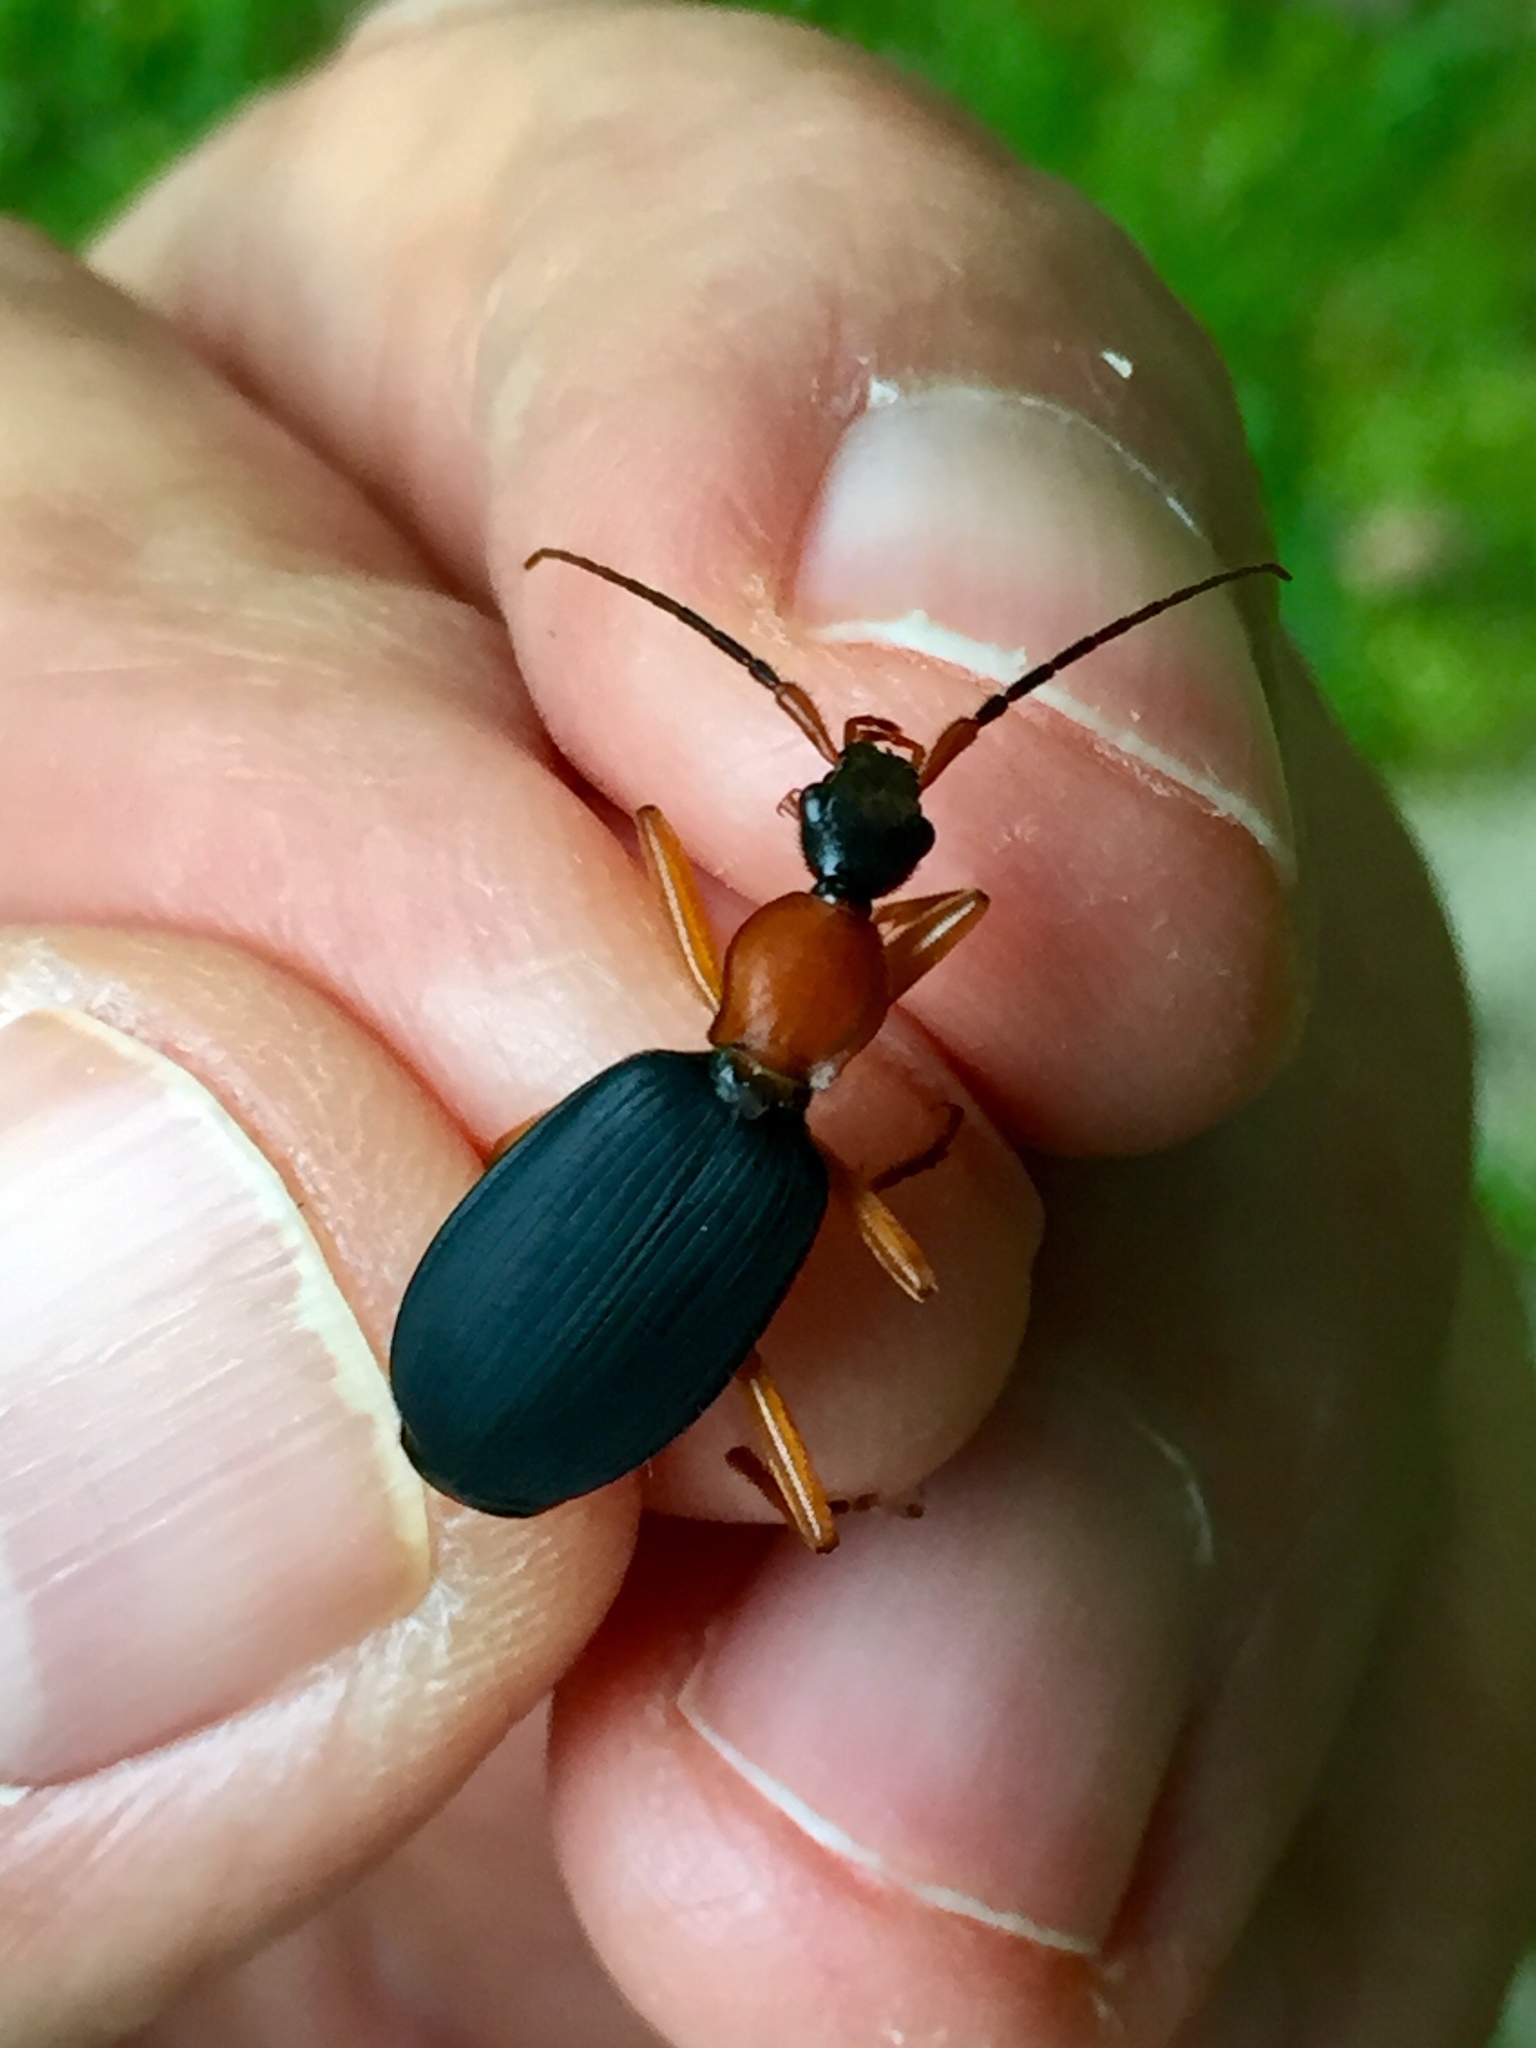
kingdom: Animalia
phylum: Arthropoda
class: Insecta
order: Coleoptera
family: Carabidae
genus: Galerita
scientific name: Galerita bicolor
